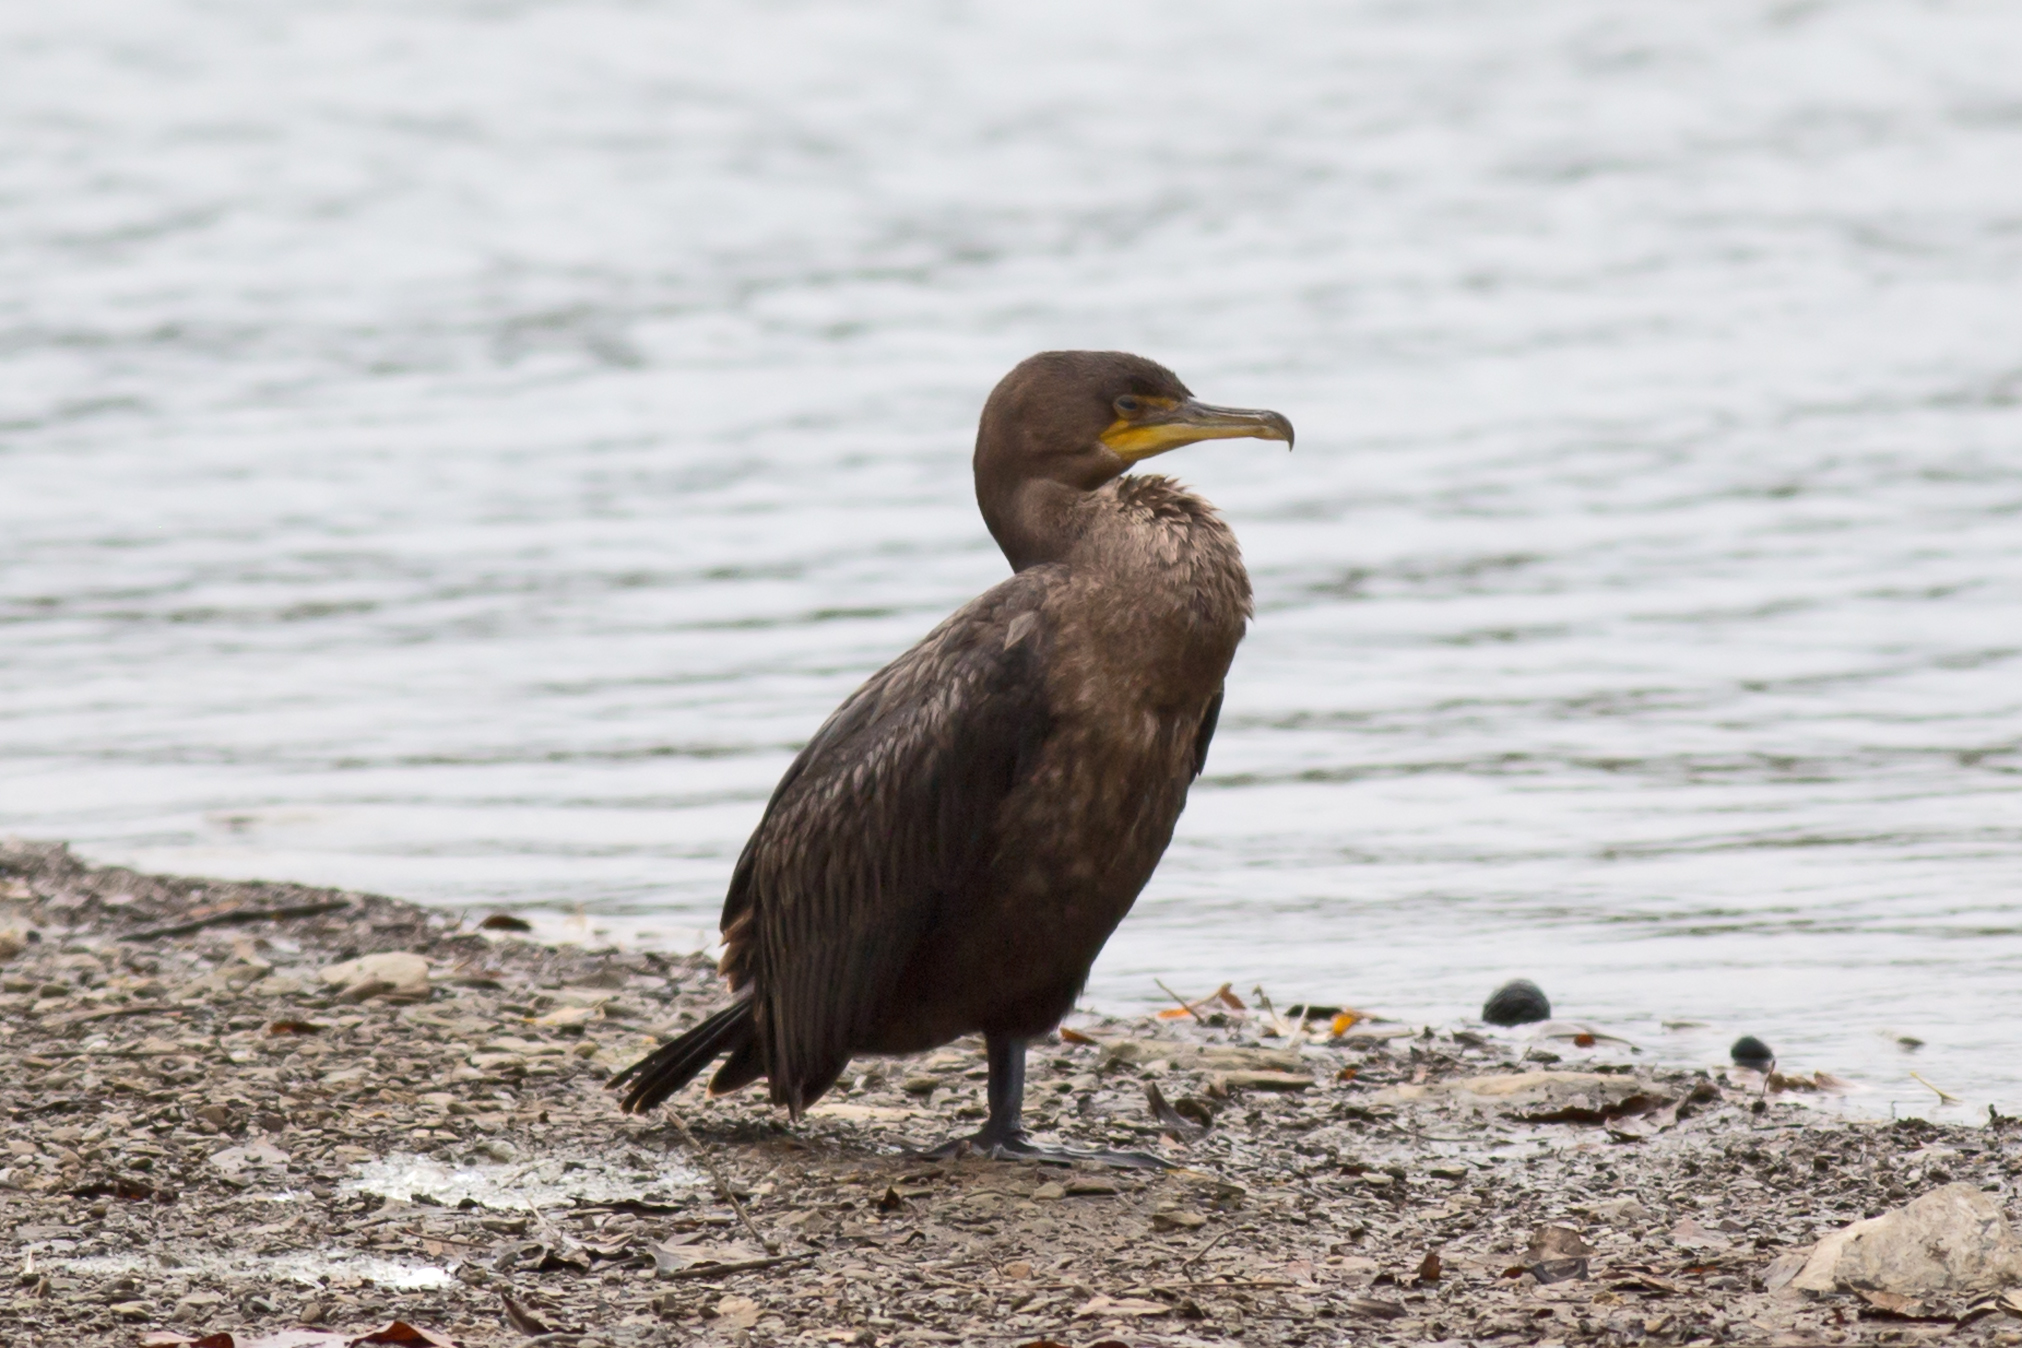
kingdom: Animalia
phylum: Chordata
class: Aves
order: Suliformes
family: Phalacrocoracidae
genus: Phalacrocorax
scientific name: Phalacrocorax auritus
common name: Double-crested cormorant
